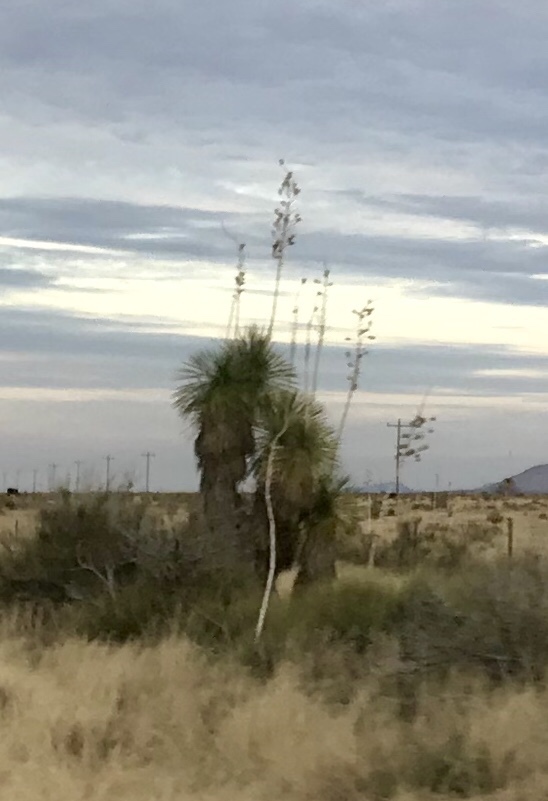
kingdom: Plantae
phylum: Tracheophyta
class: Liliopsida
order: Asparagales
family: Asparagaceae
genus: Yucca
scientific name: Yucca elata
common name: Palmella
